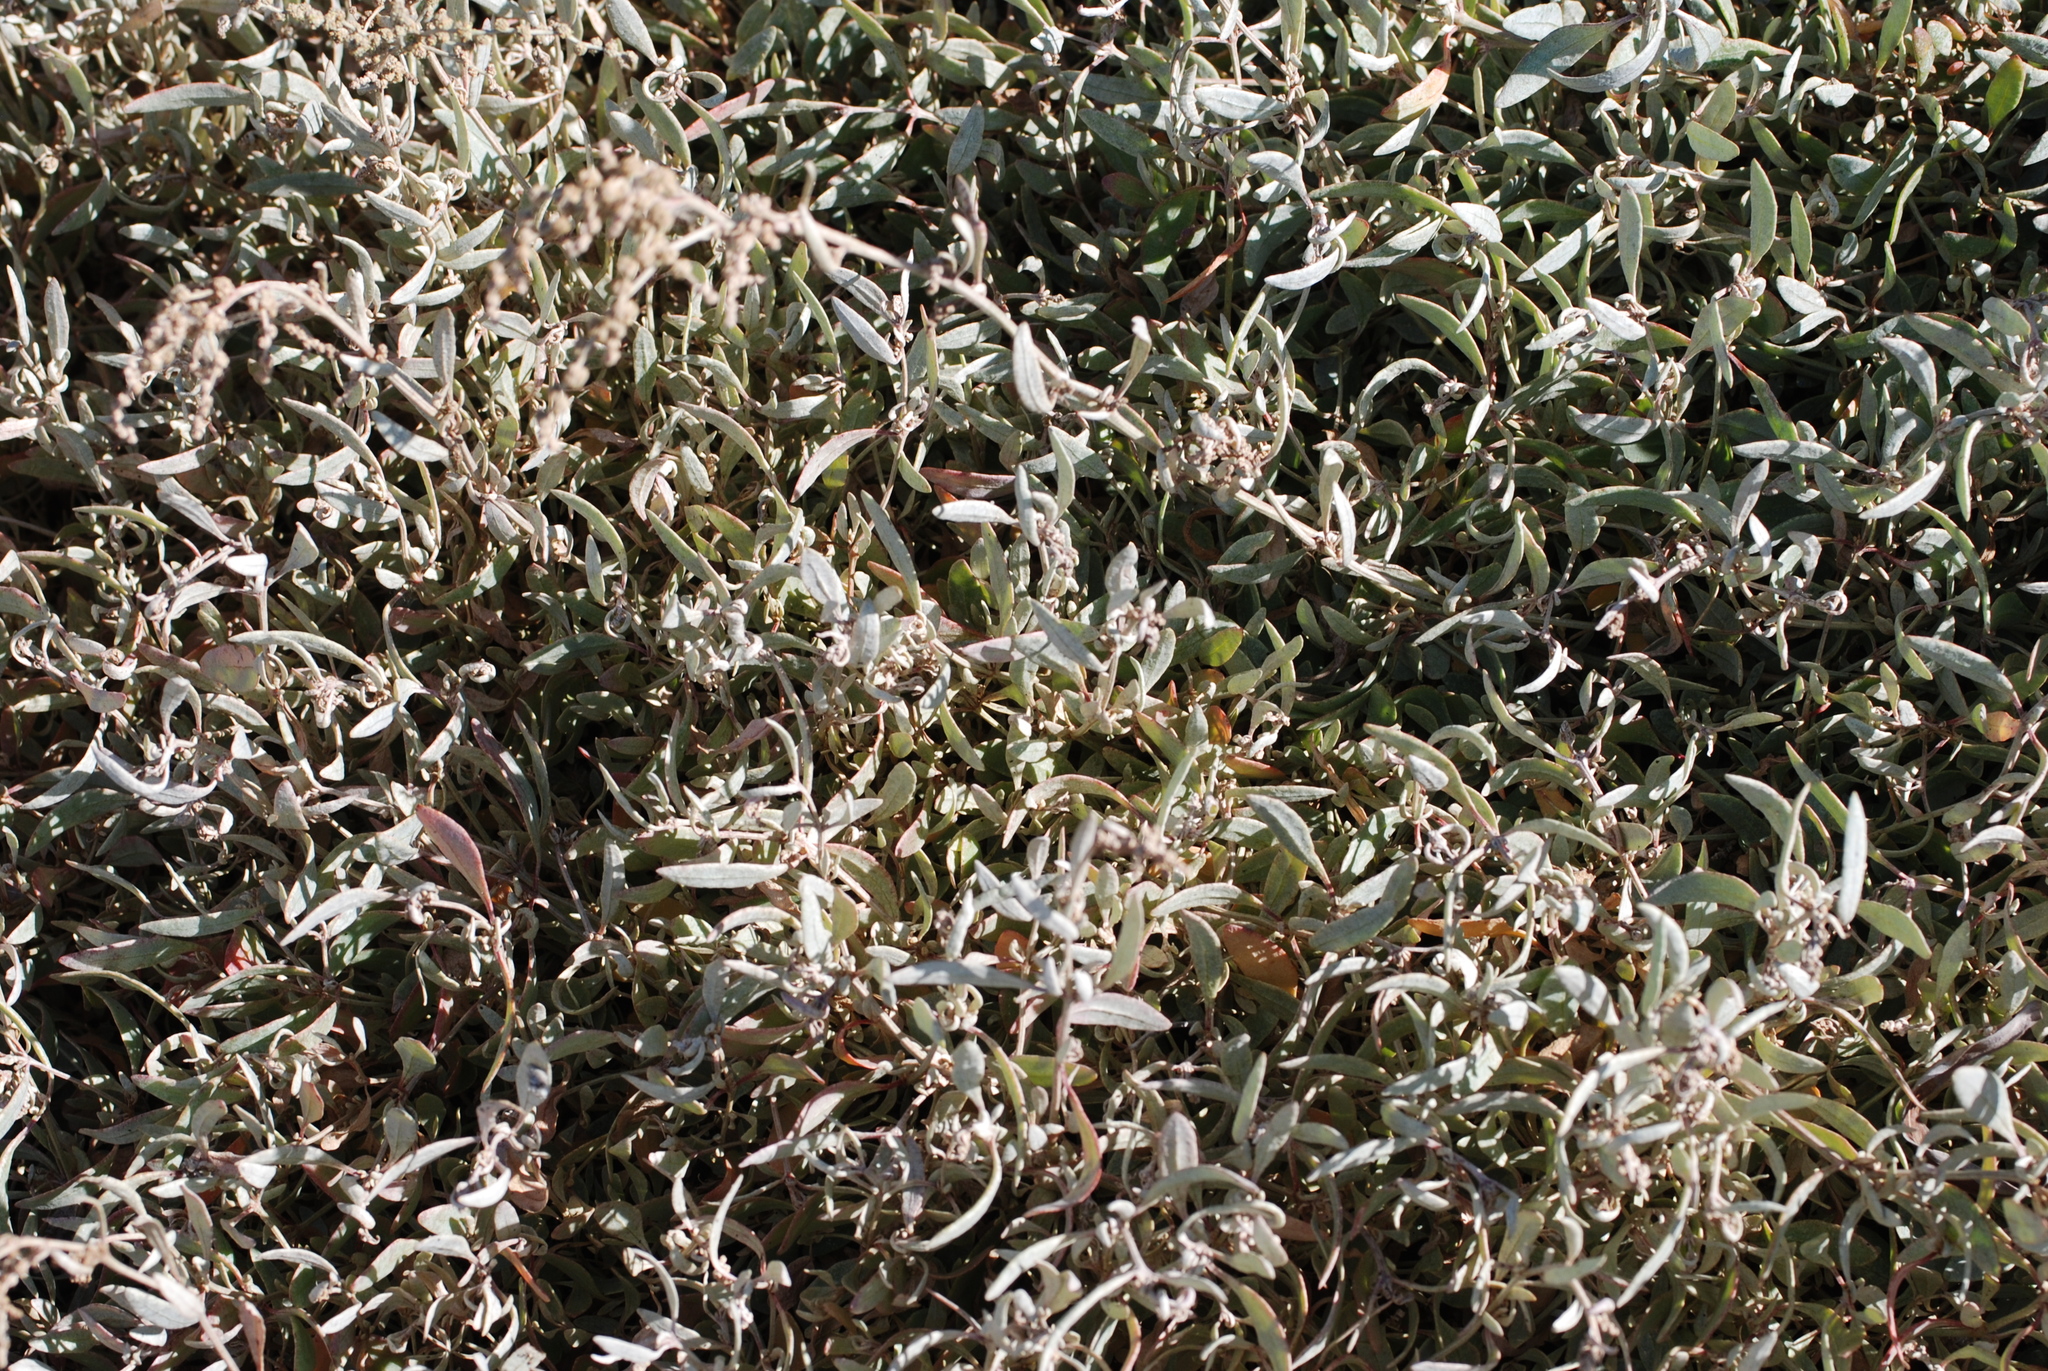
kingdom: Plantae
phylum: Tracheophyta
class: Magnoliopsida
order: Caryophyllales
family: Amaranthaceae
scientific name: Amaranthaceae
